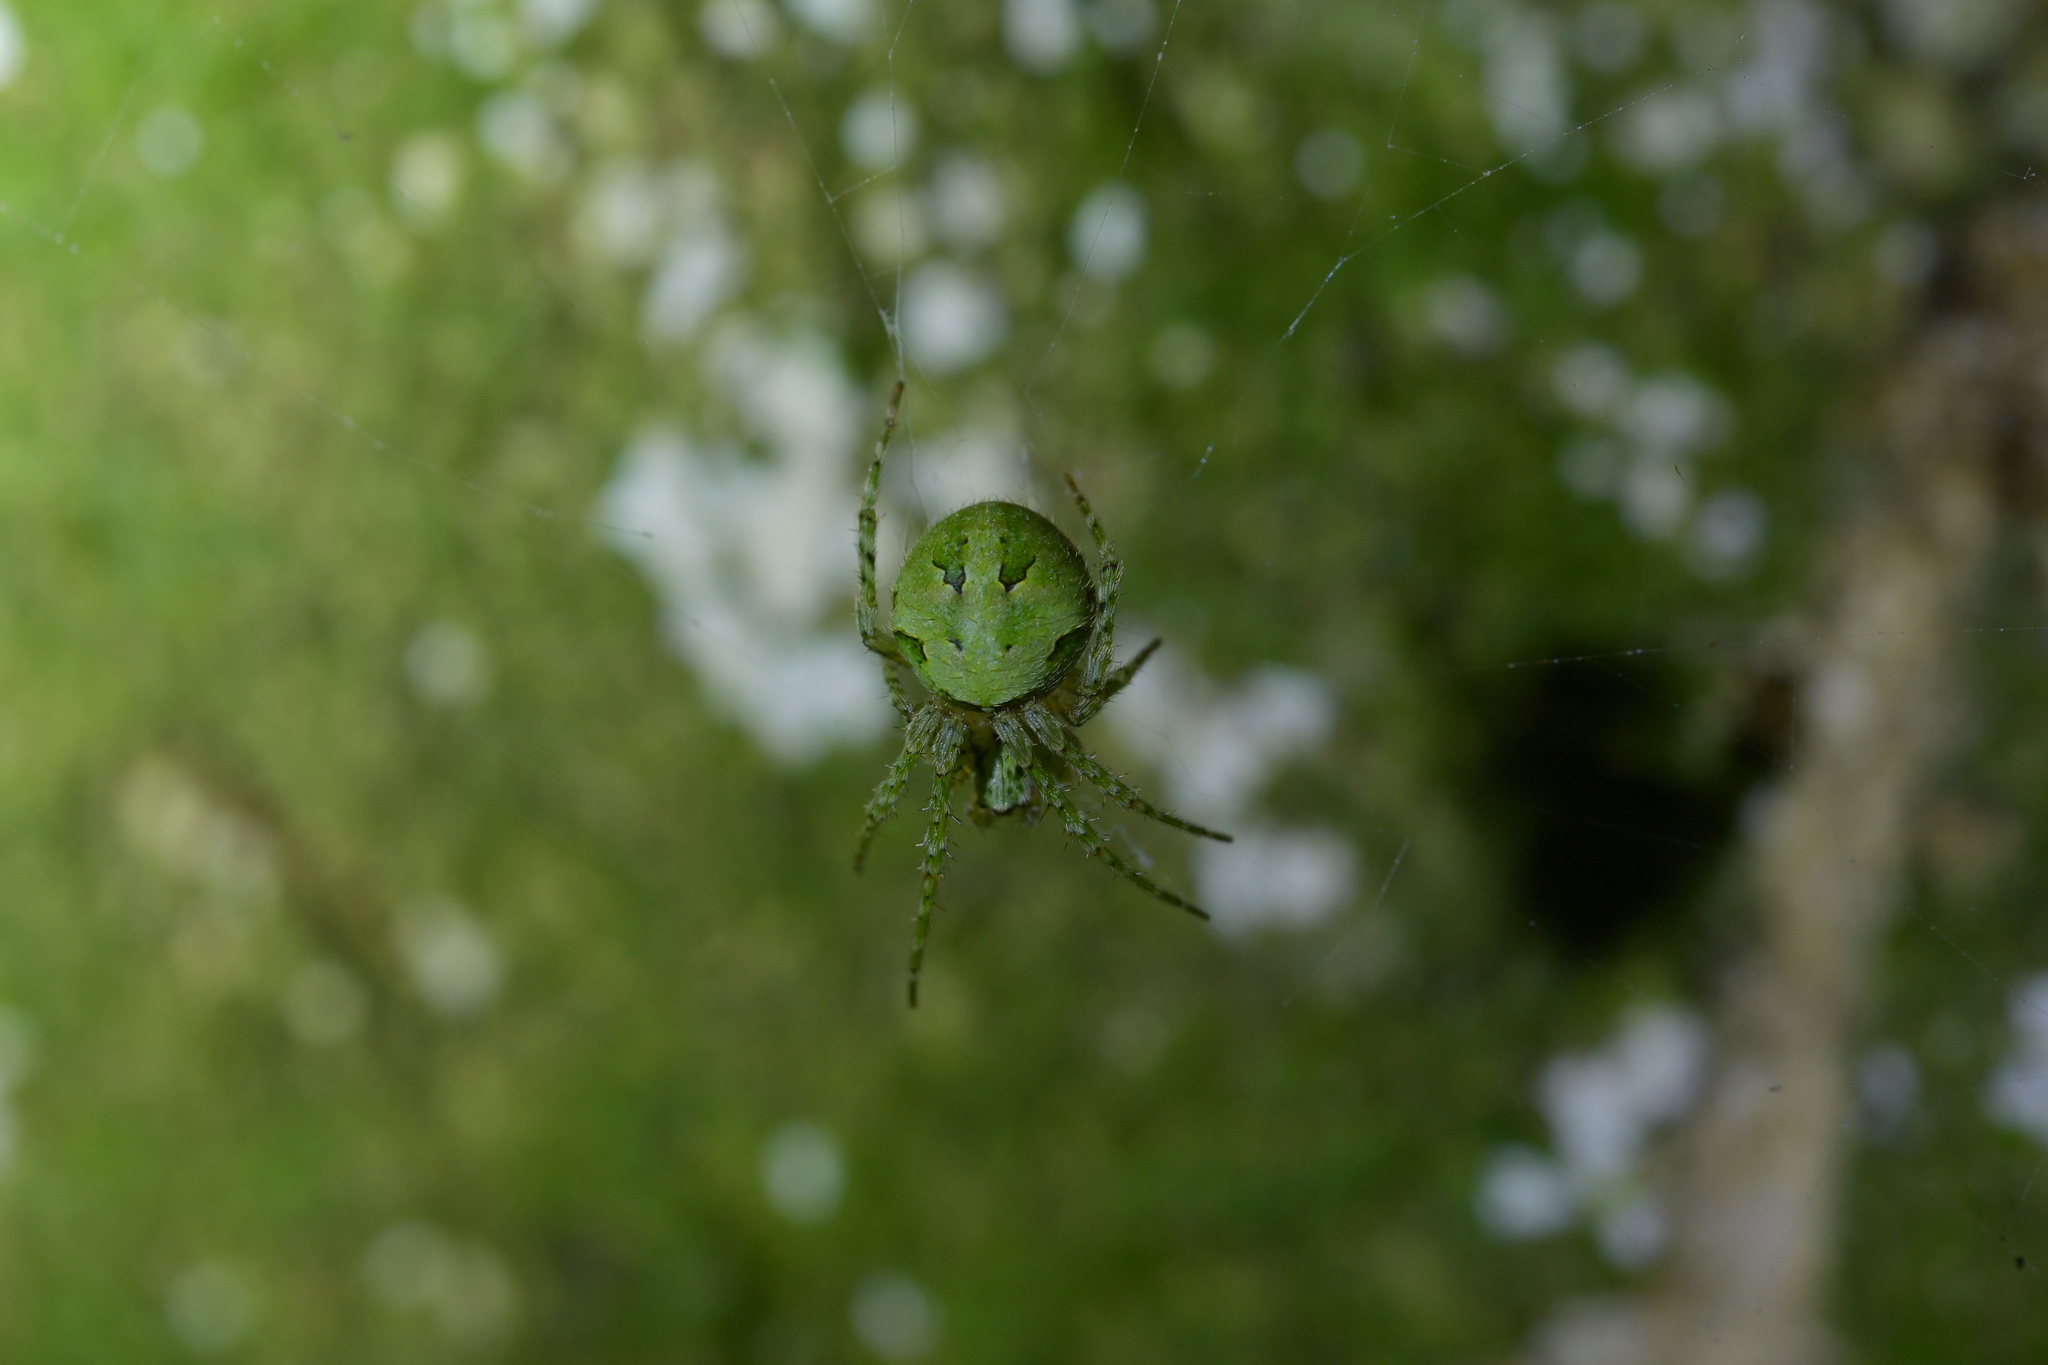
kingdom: Animalia
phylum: Arthropoda
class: Arachnida
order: Araneae
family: Araneidae
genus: Cryptaranea
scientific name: Cryptaranea atrihastula
